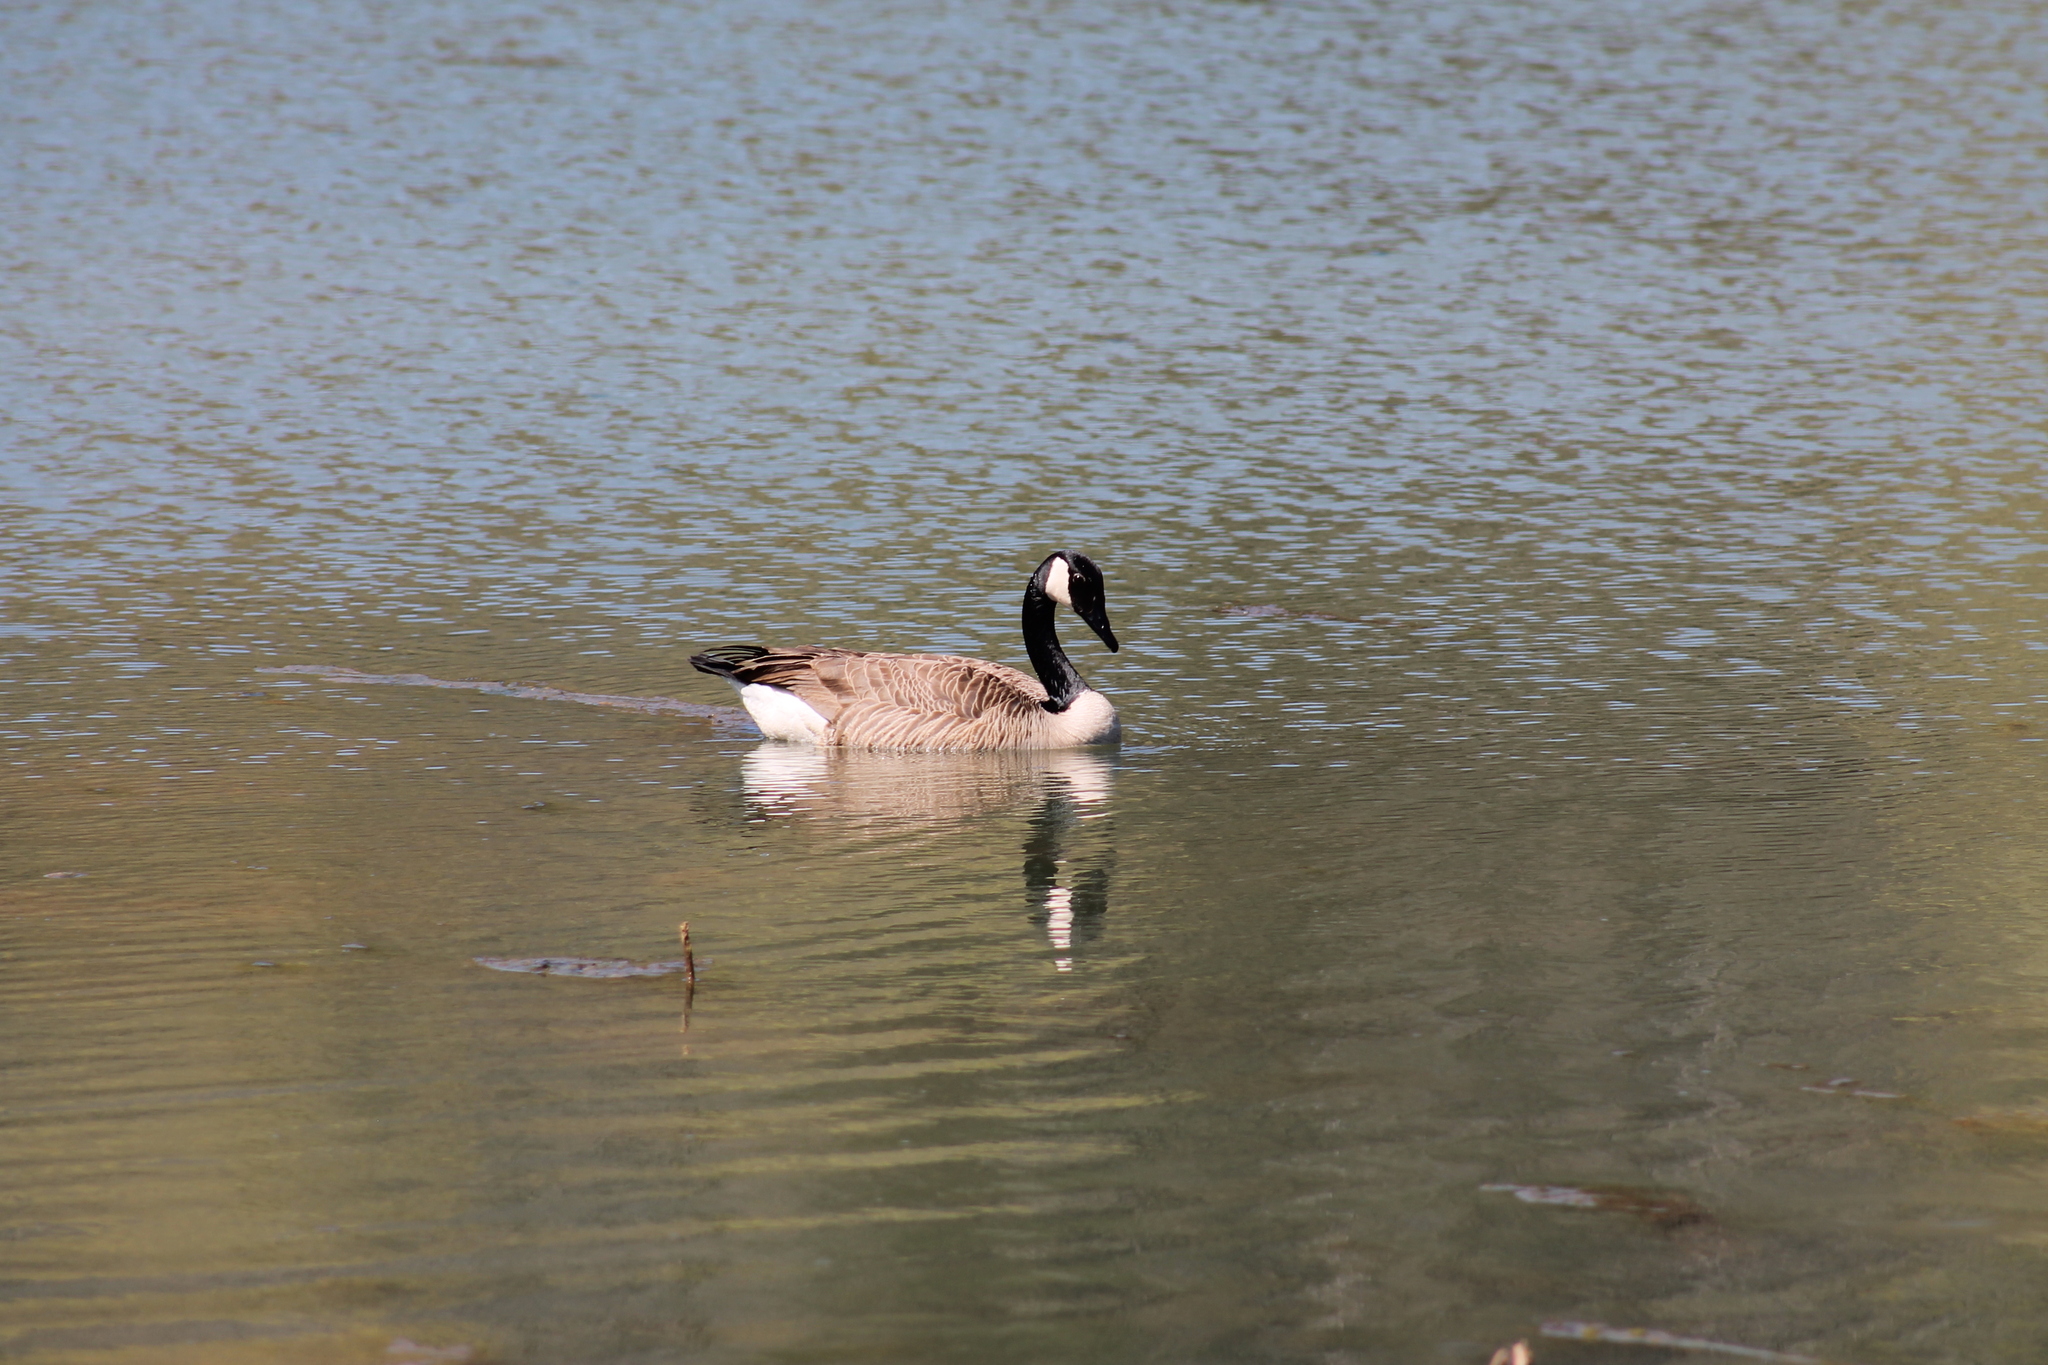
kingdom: Animalia
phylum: Chordata
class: Aves
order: Anseriformes
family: Anatidae
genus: Branta
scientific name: Branta canadensis
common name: Canada goose
